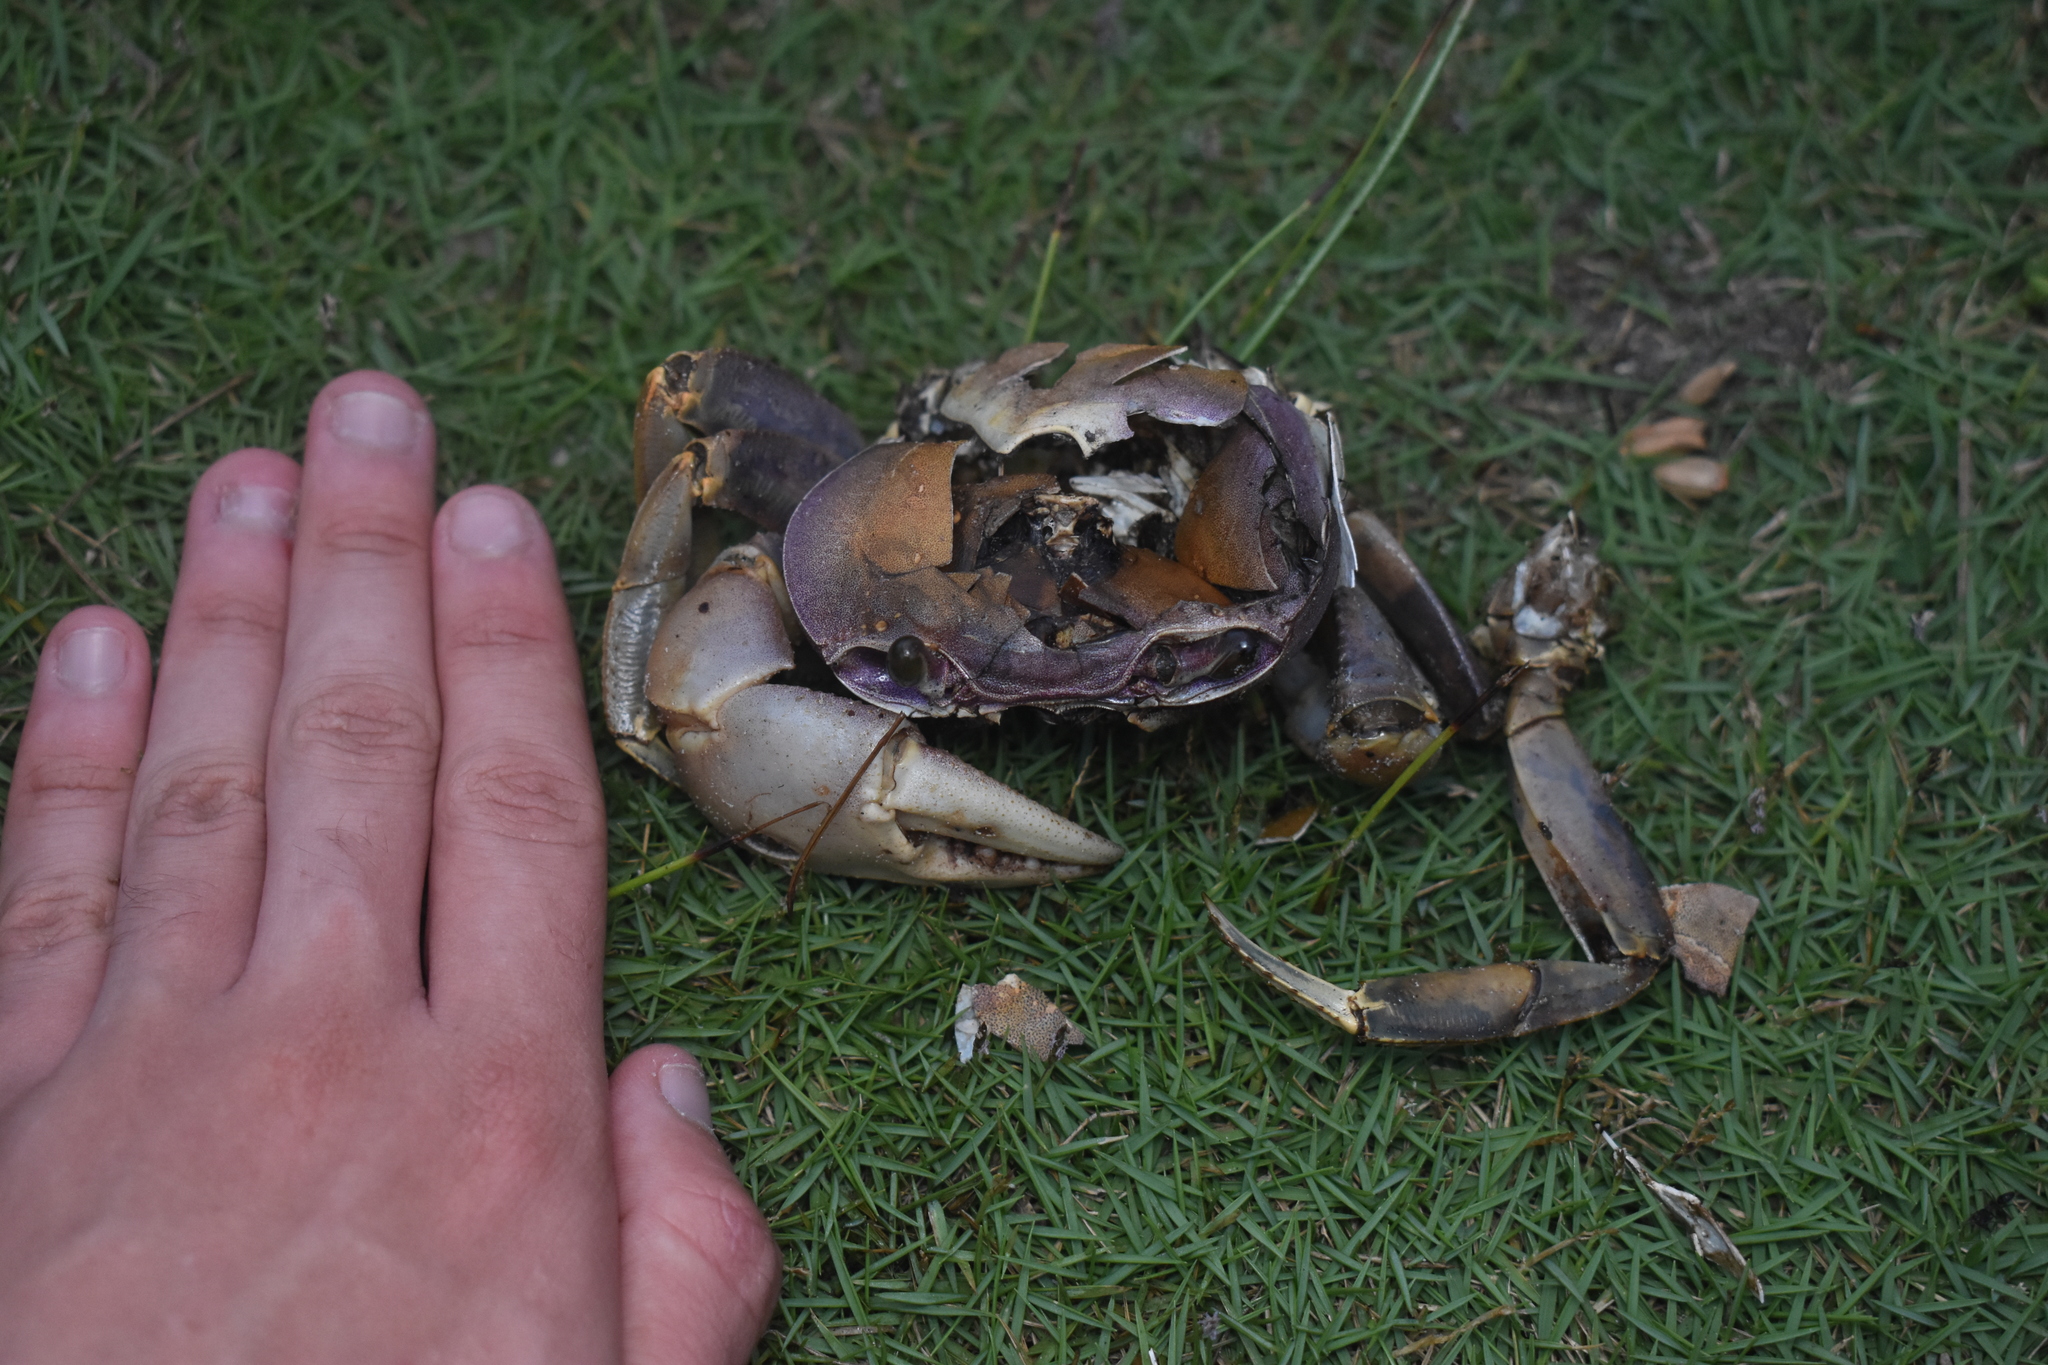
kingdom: Animalia
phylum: Arthropoda
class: Malacostraca
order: Decapoda
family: Gecarcinidae
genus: Cardisoma
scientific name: Cardisoma guanhumi
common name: Great land crab
